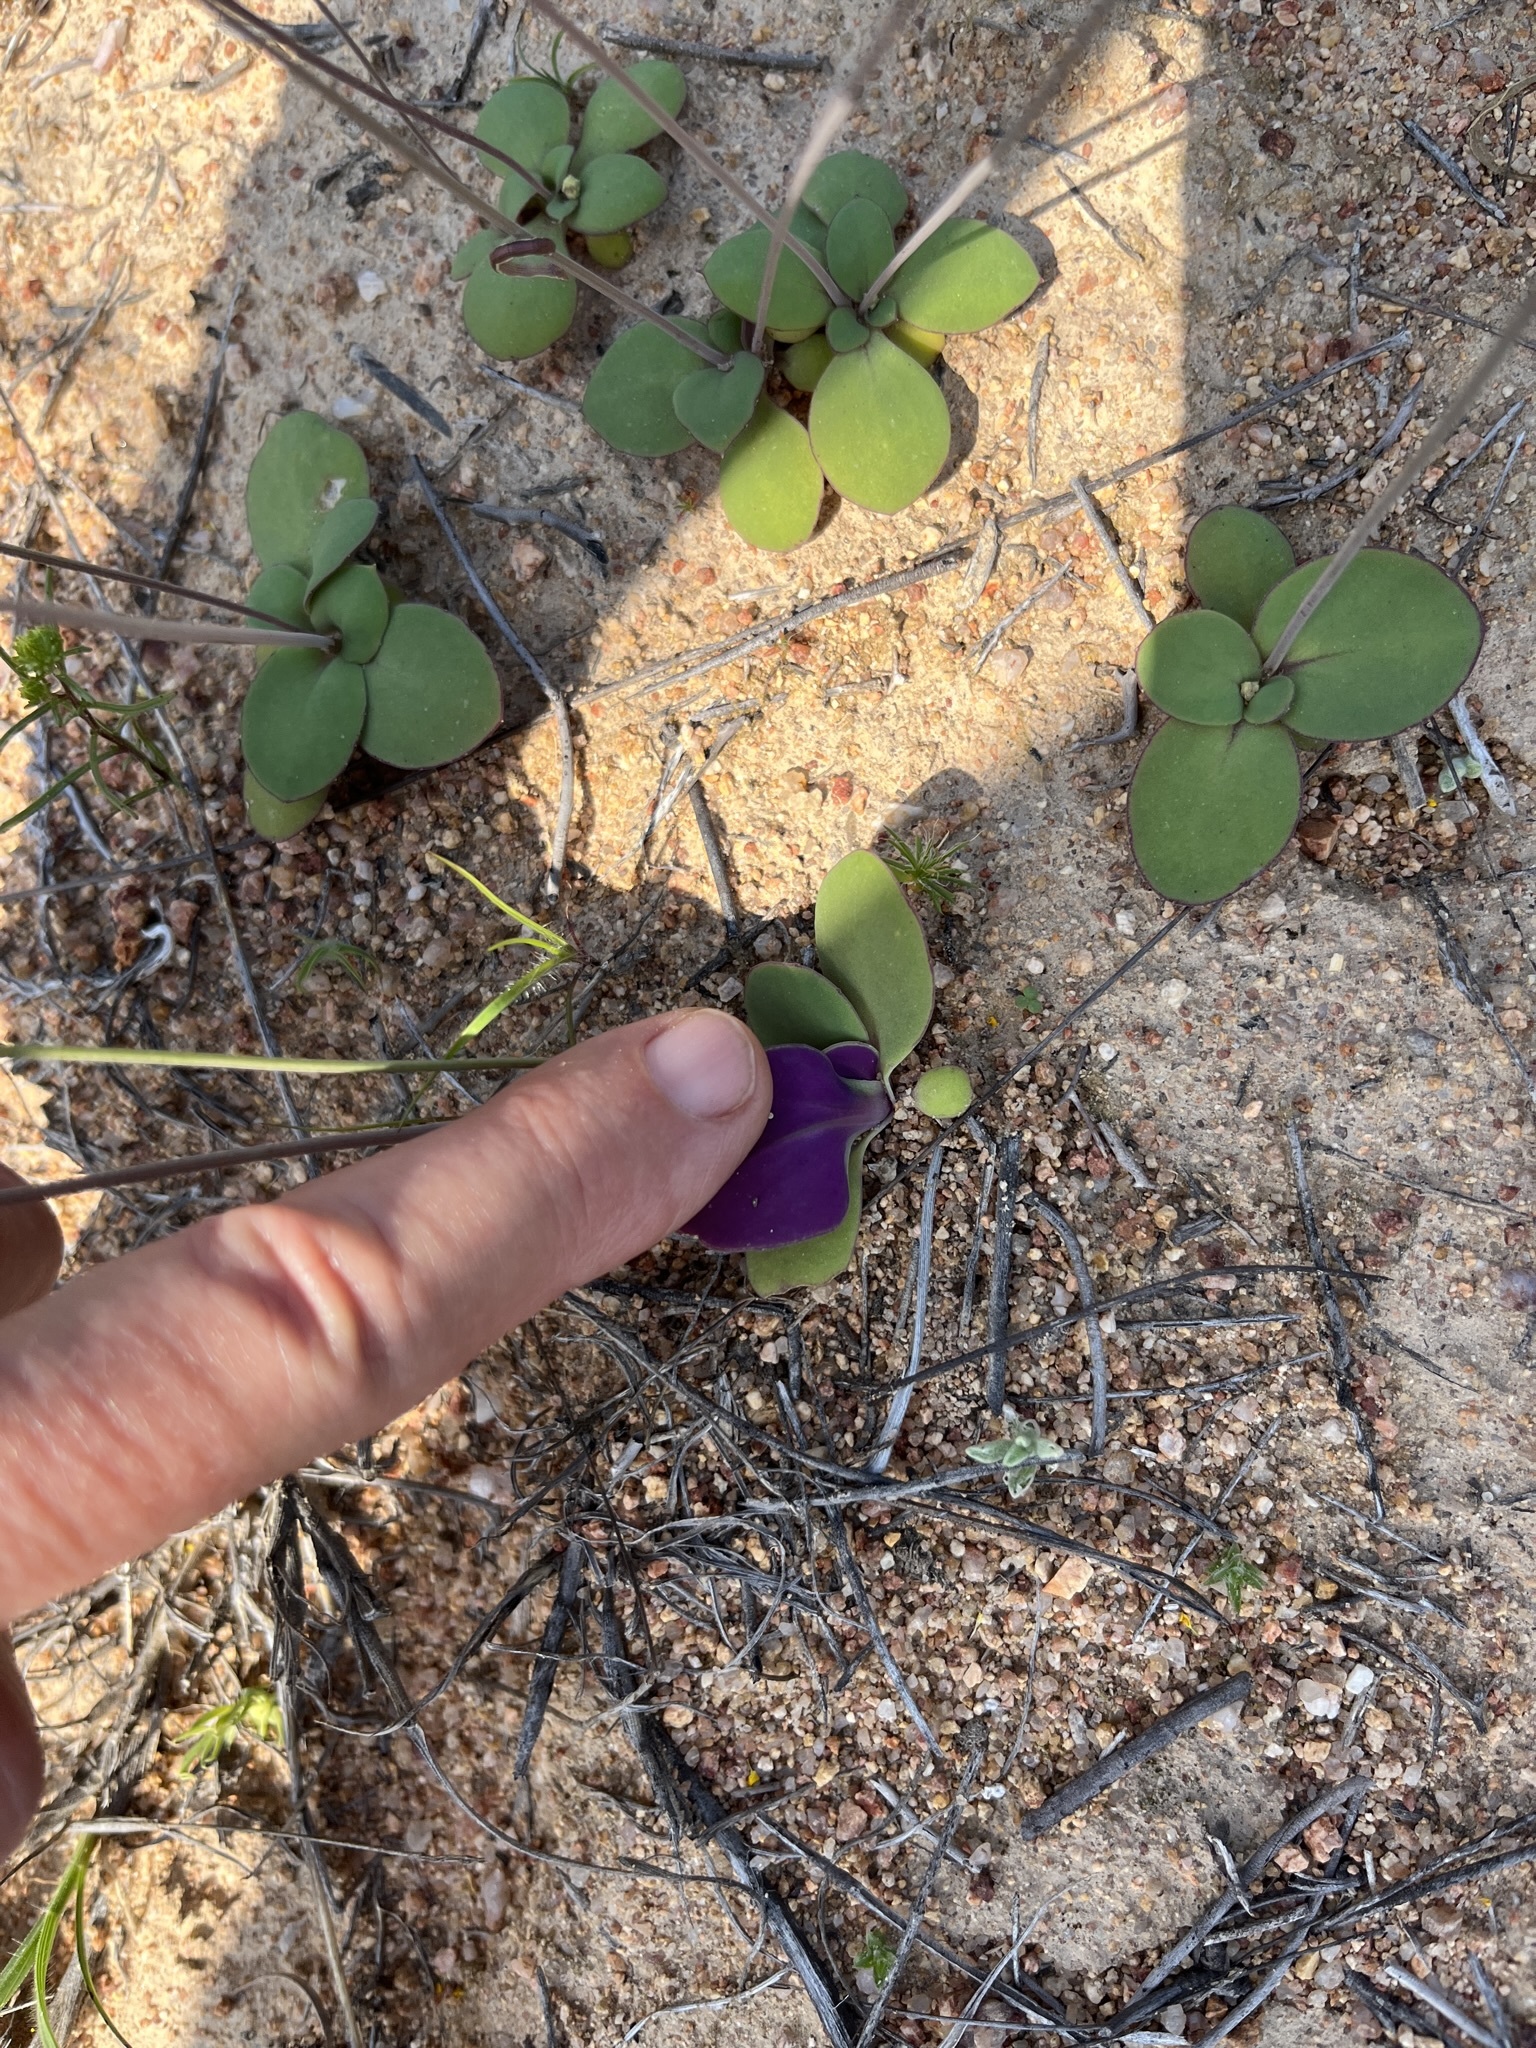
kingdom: Plantae
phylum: Tracheophyta
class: Magnoliopsida
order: Asterales
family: Asteraceae
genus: Gymnodiscus
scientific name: Gymnodiscus capillaris
